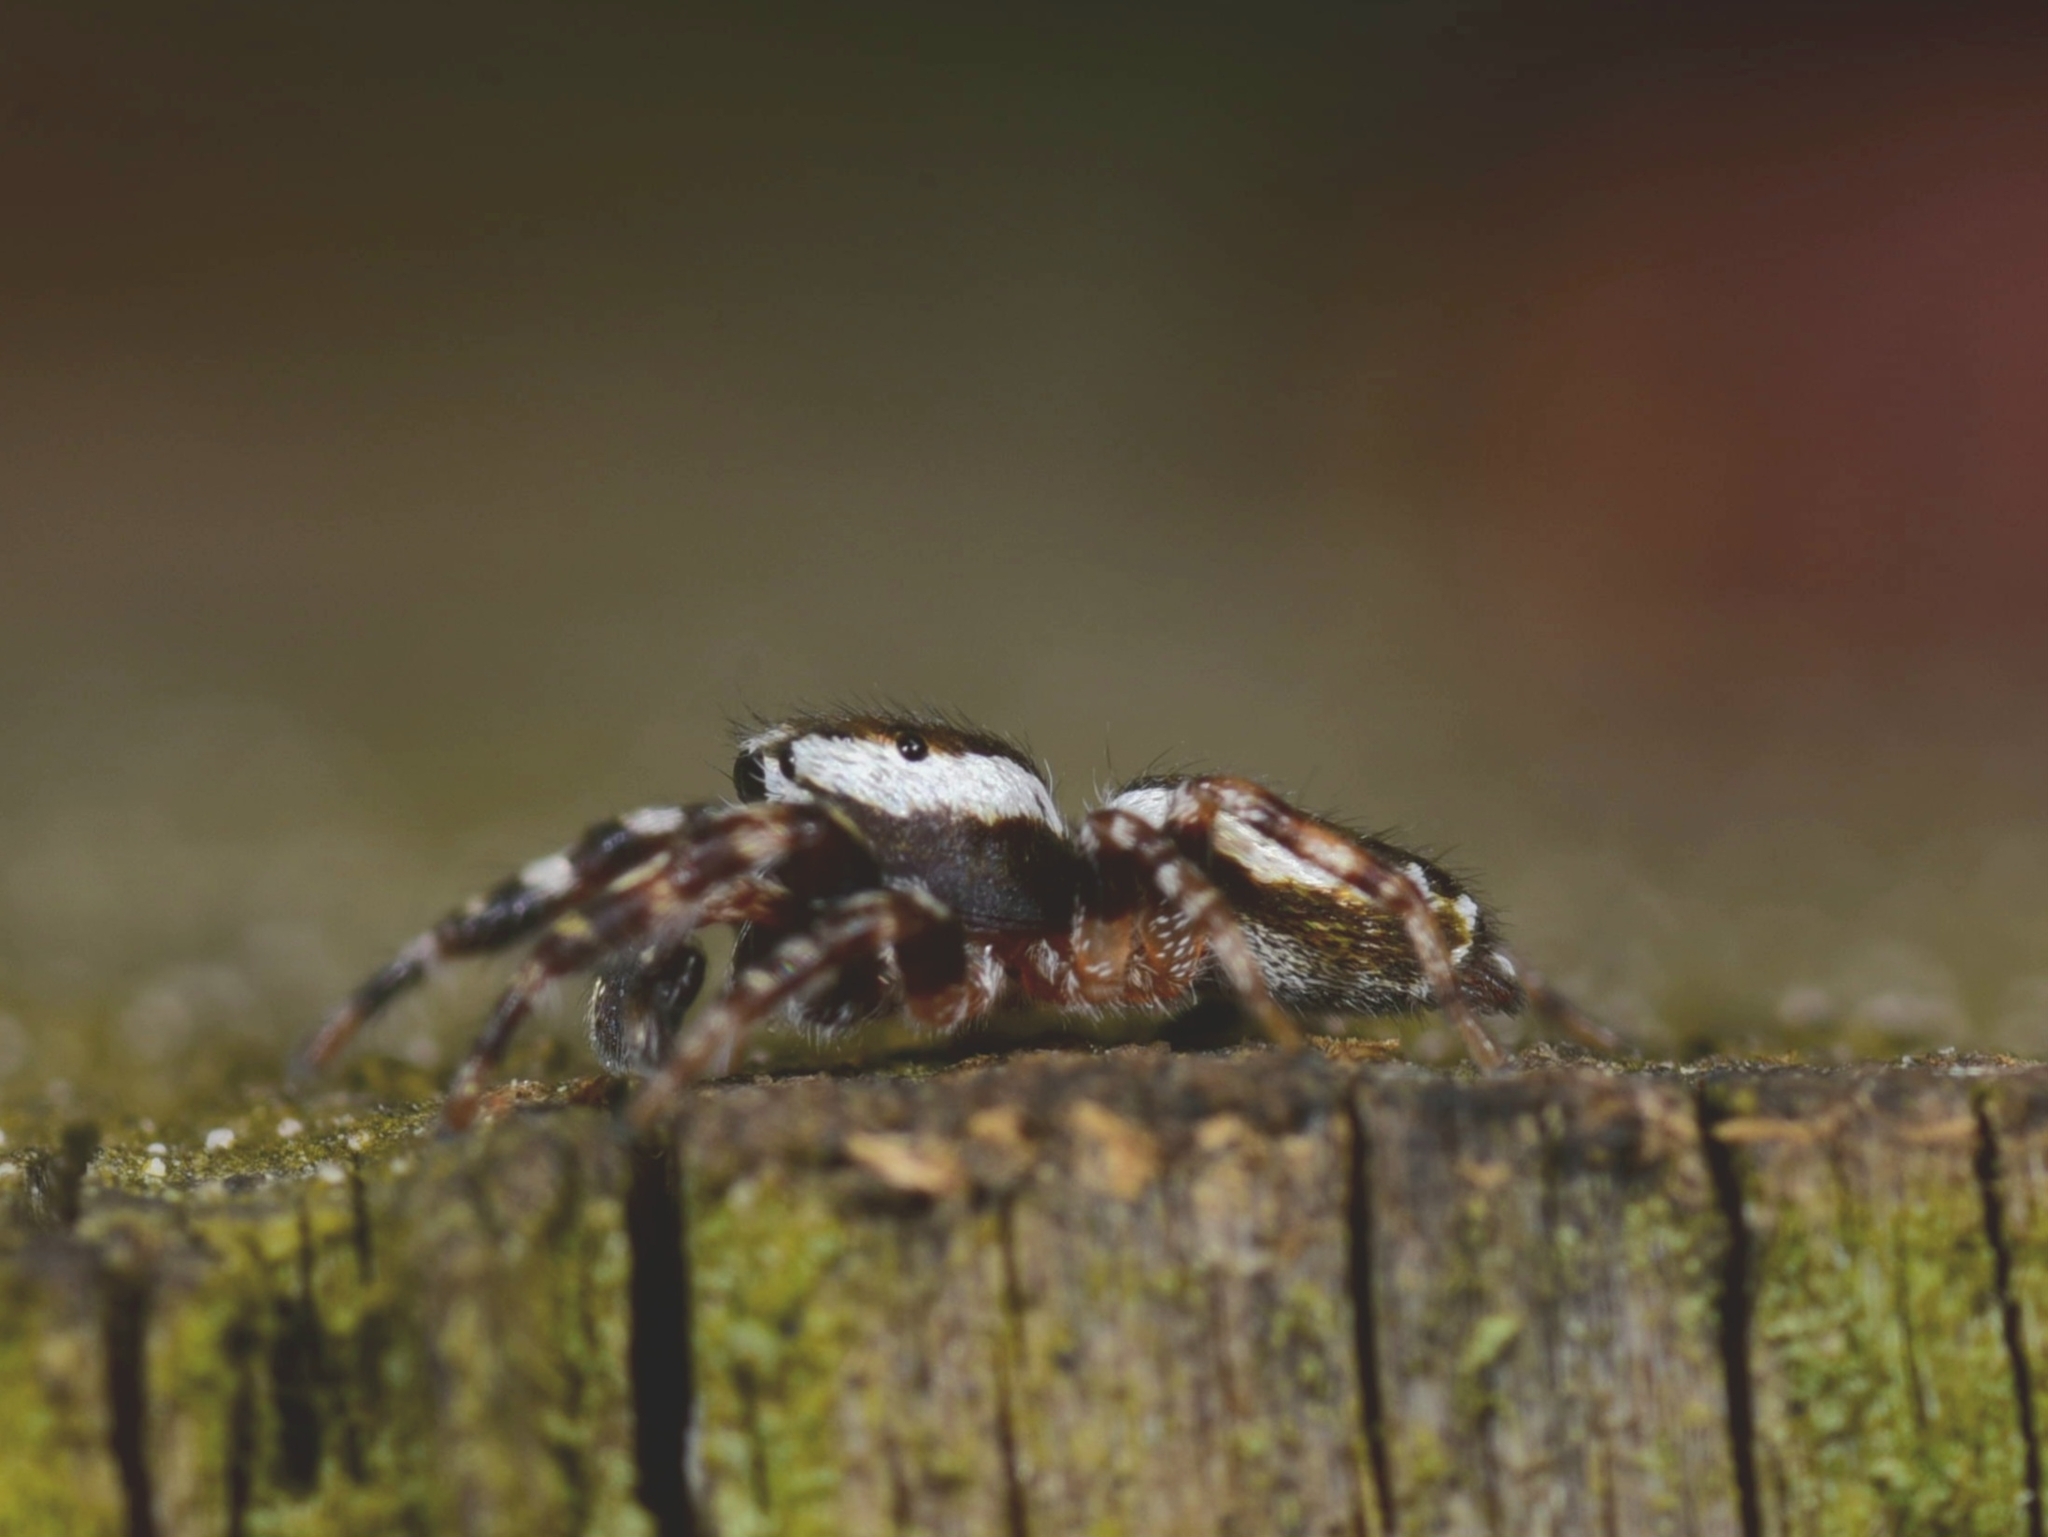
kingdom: Animalia
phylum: Arthropoda
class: Arachnida
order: Araneae
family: Salticidae
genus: Pelegrina
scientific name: Pelegrina proterva
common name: Common white-cheeked jumping spider
